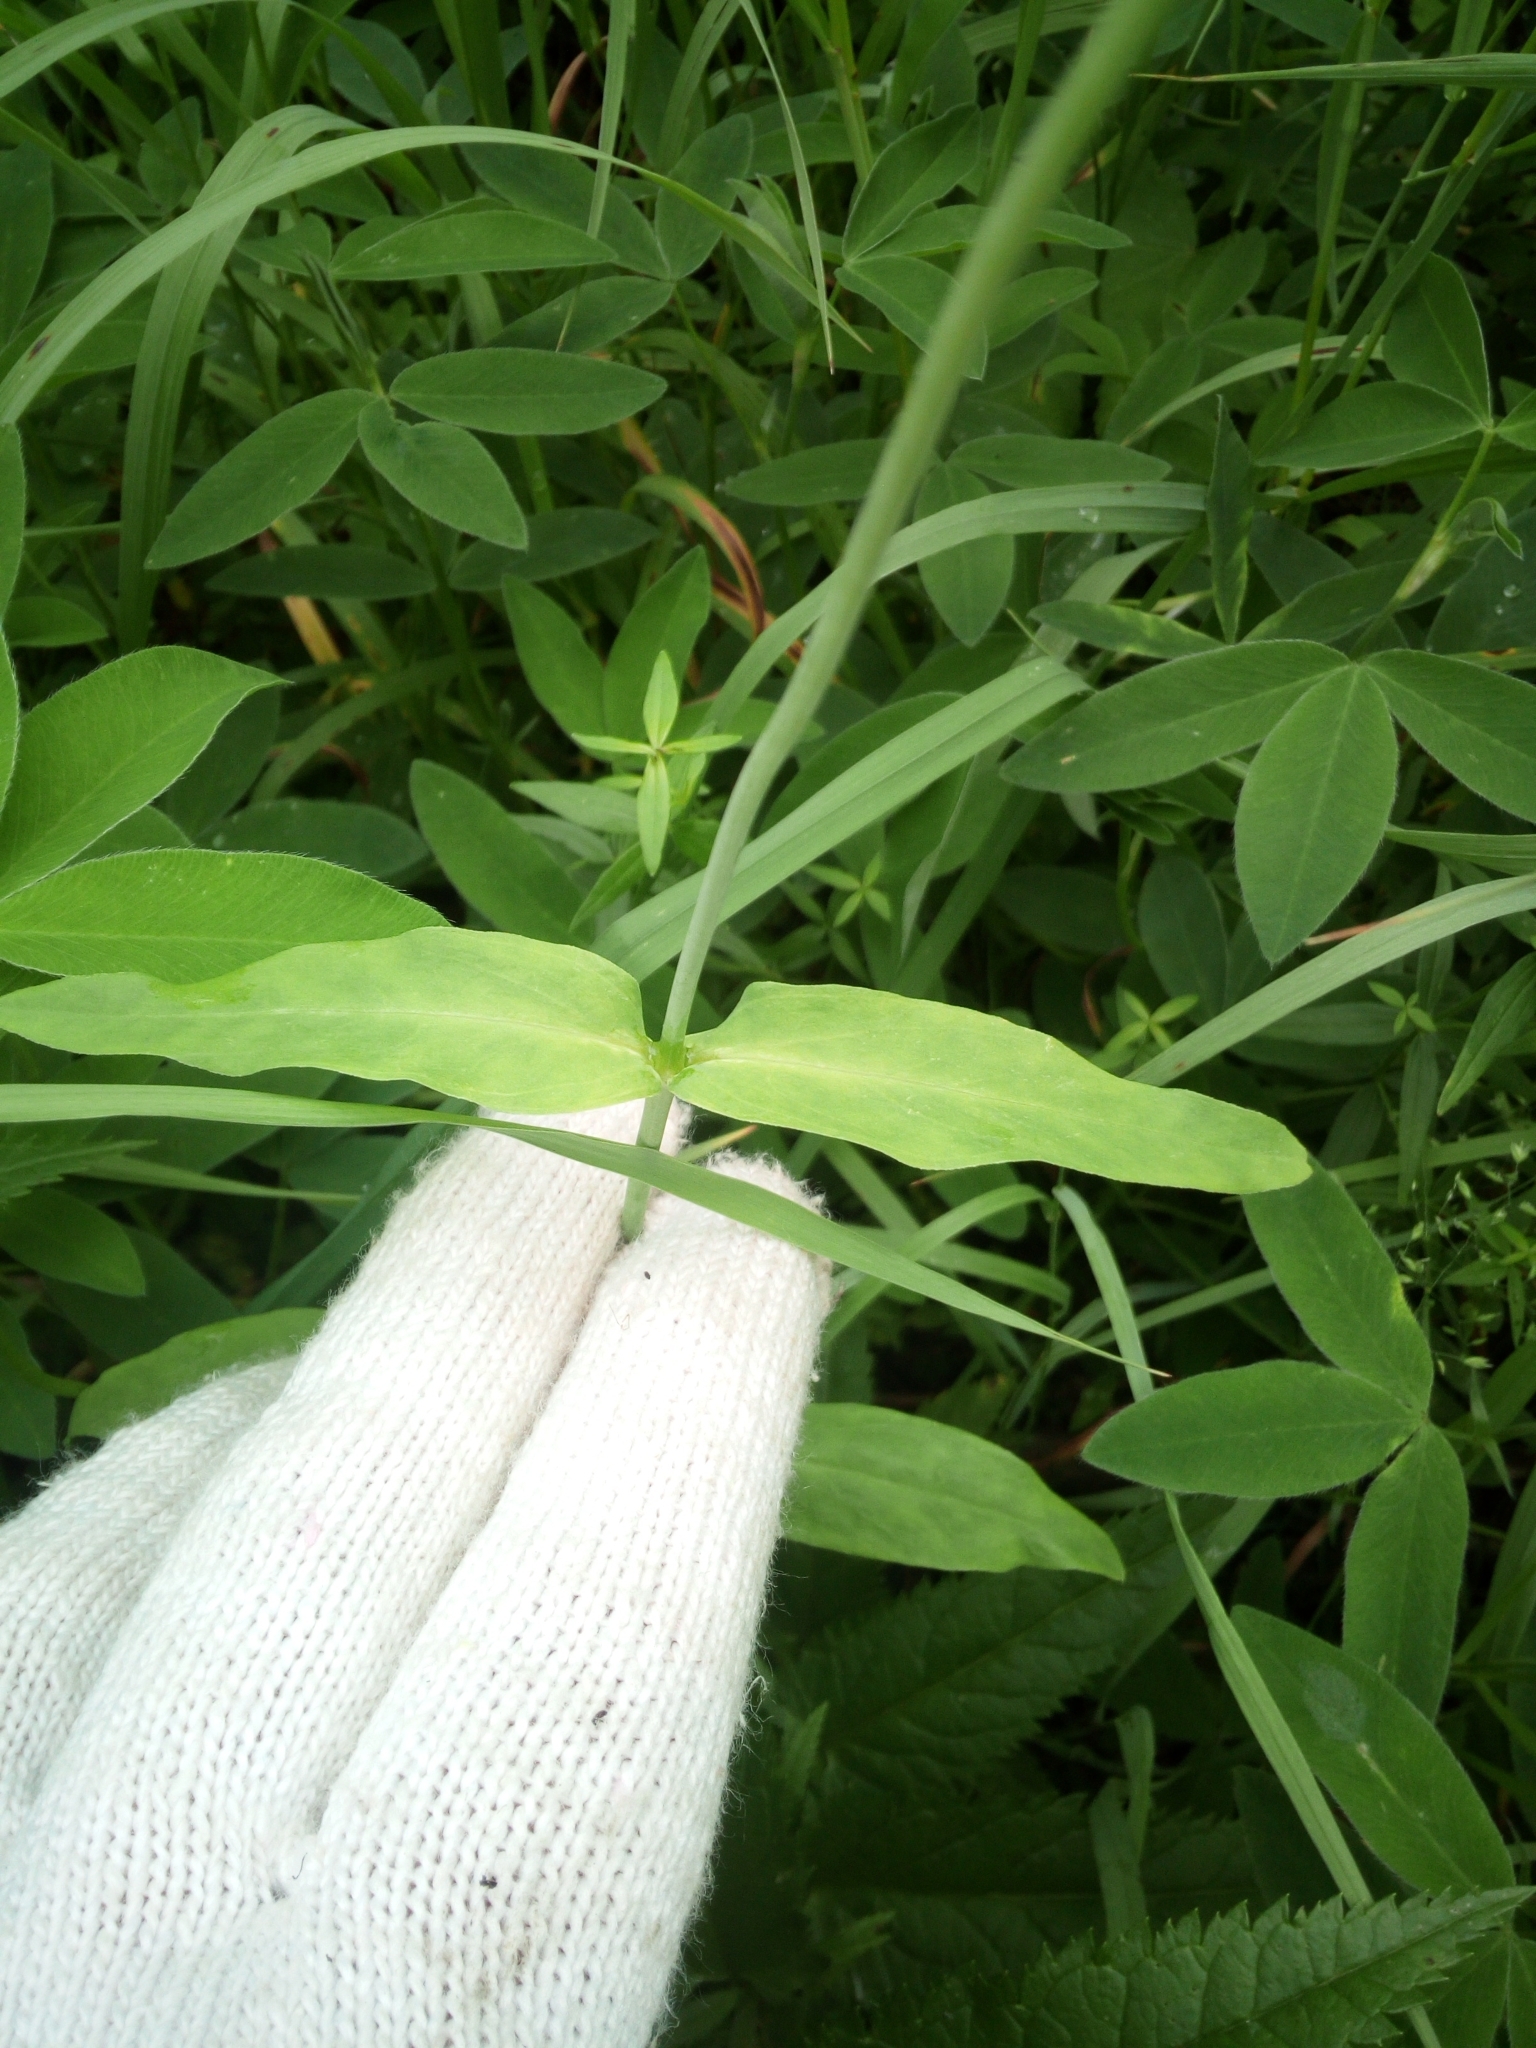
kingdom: Plantae
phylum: Tracheophyta
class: Magnoliopsida
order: Caryophyllales
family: Caryophyllaceae
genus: Silene
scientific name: Silene vulgaris
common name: Bladder campion
